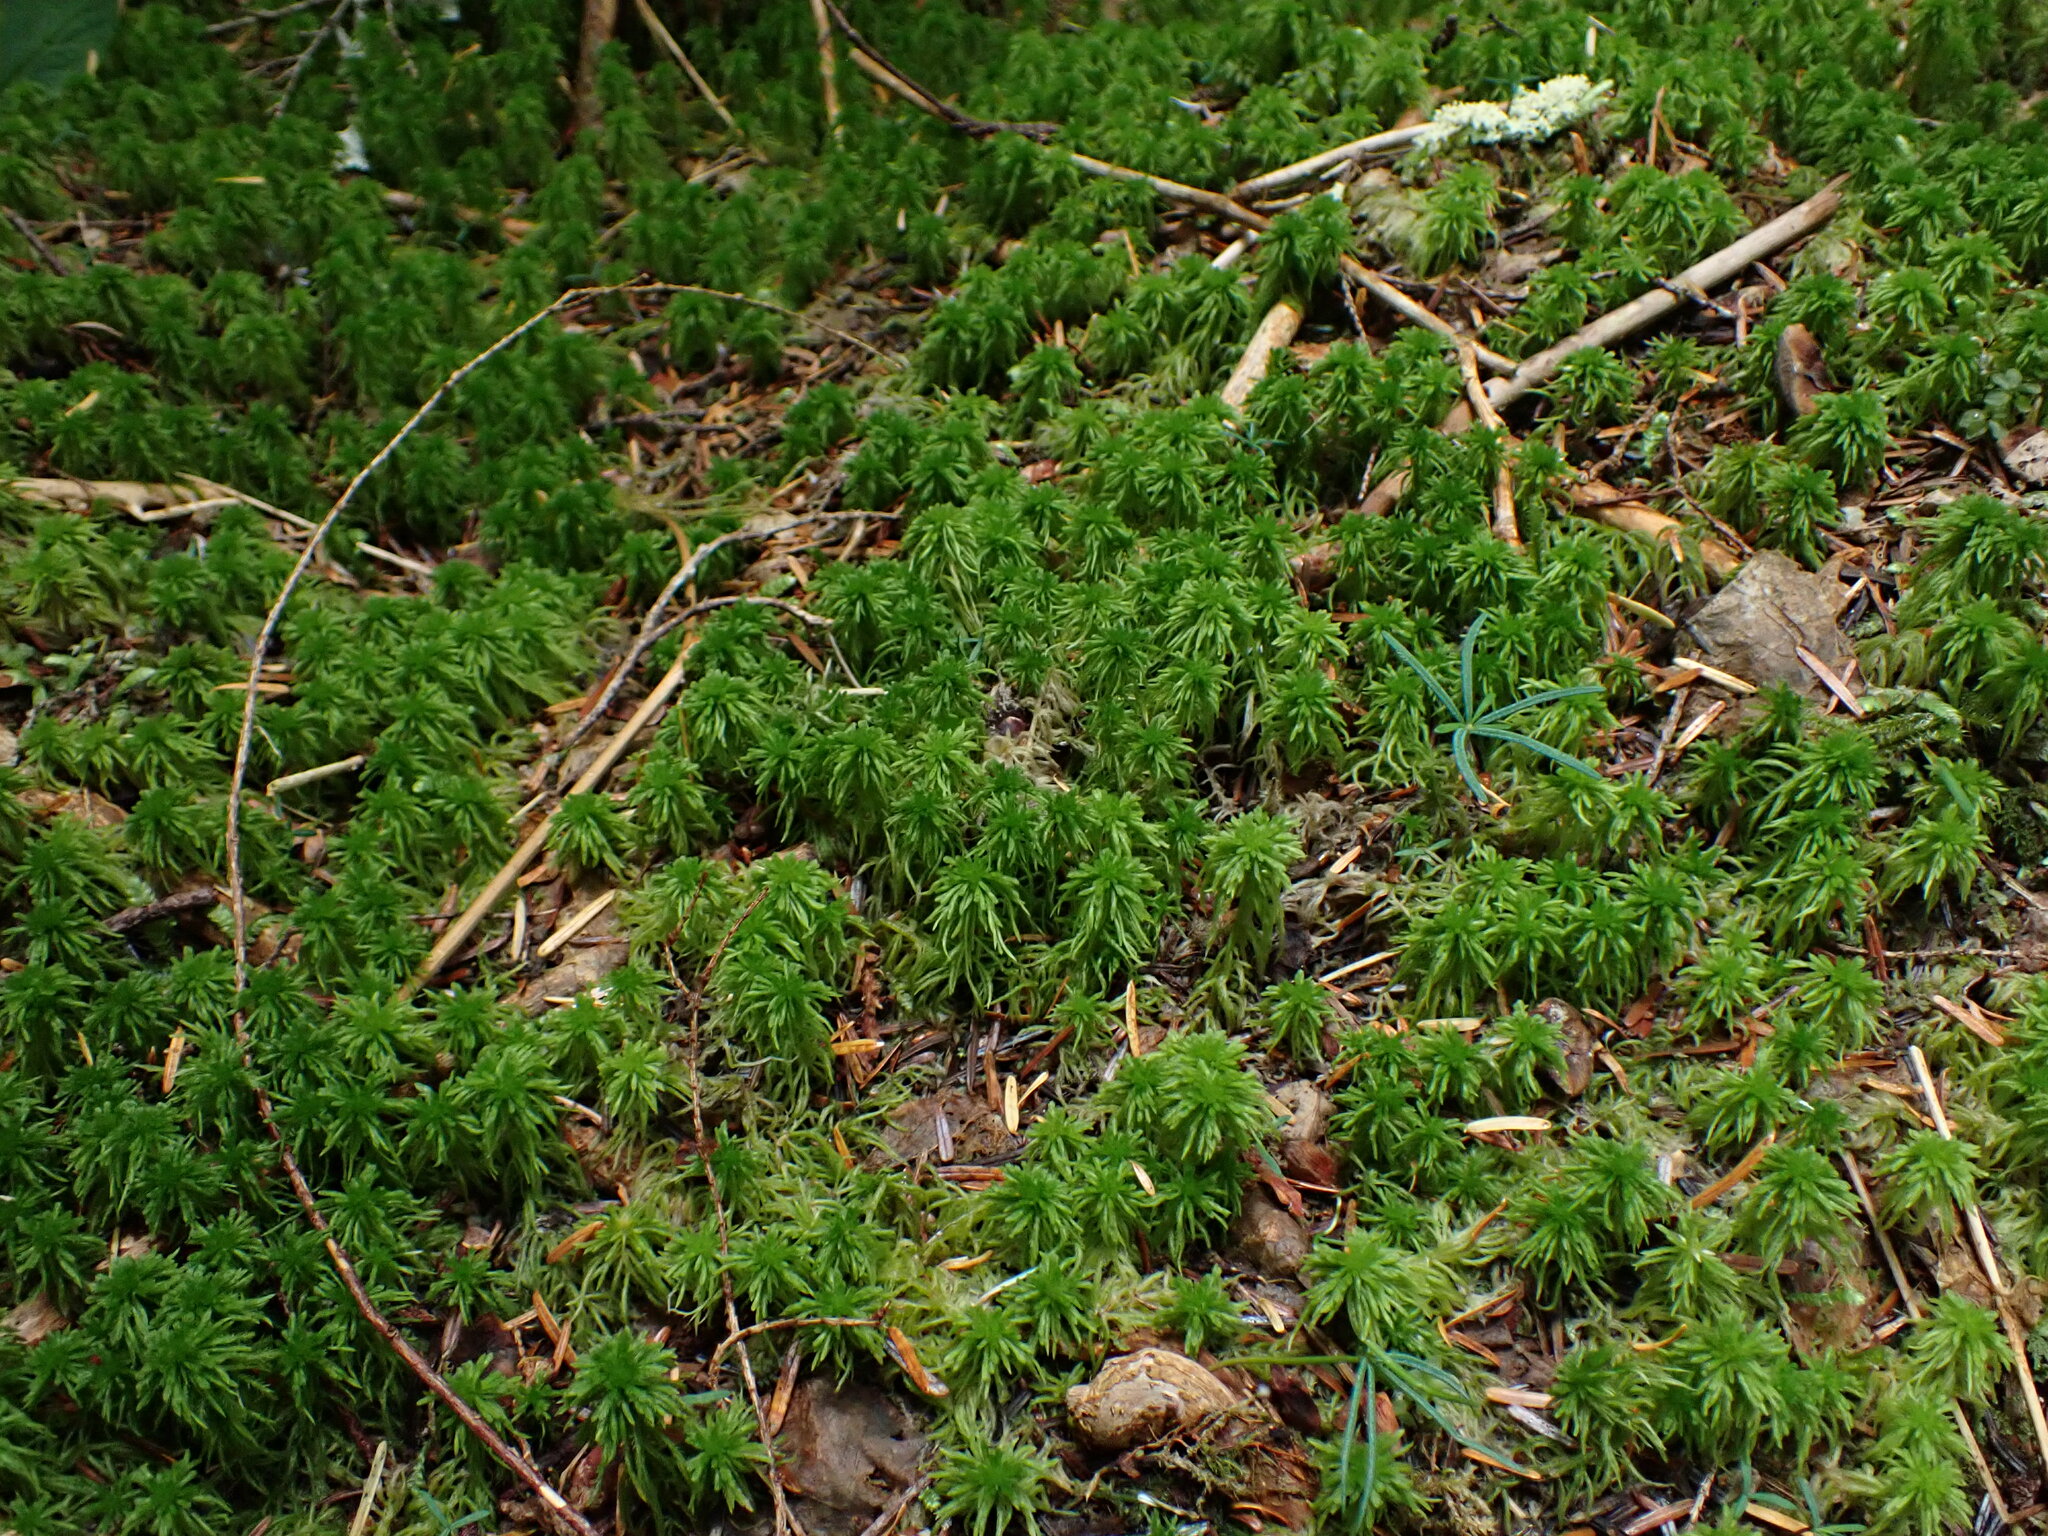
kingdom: Plantae
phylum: Bryophyta
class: Sphagnopsida
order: Sphagnales
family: Sphagnaceae
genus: Sphagnum
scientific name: Sphagnum rubiginosum
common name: Variegated peat moss
